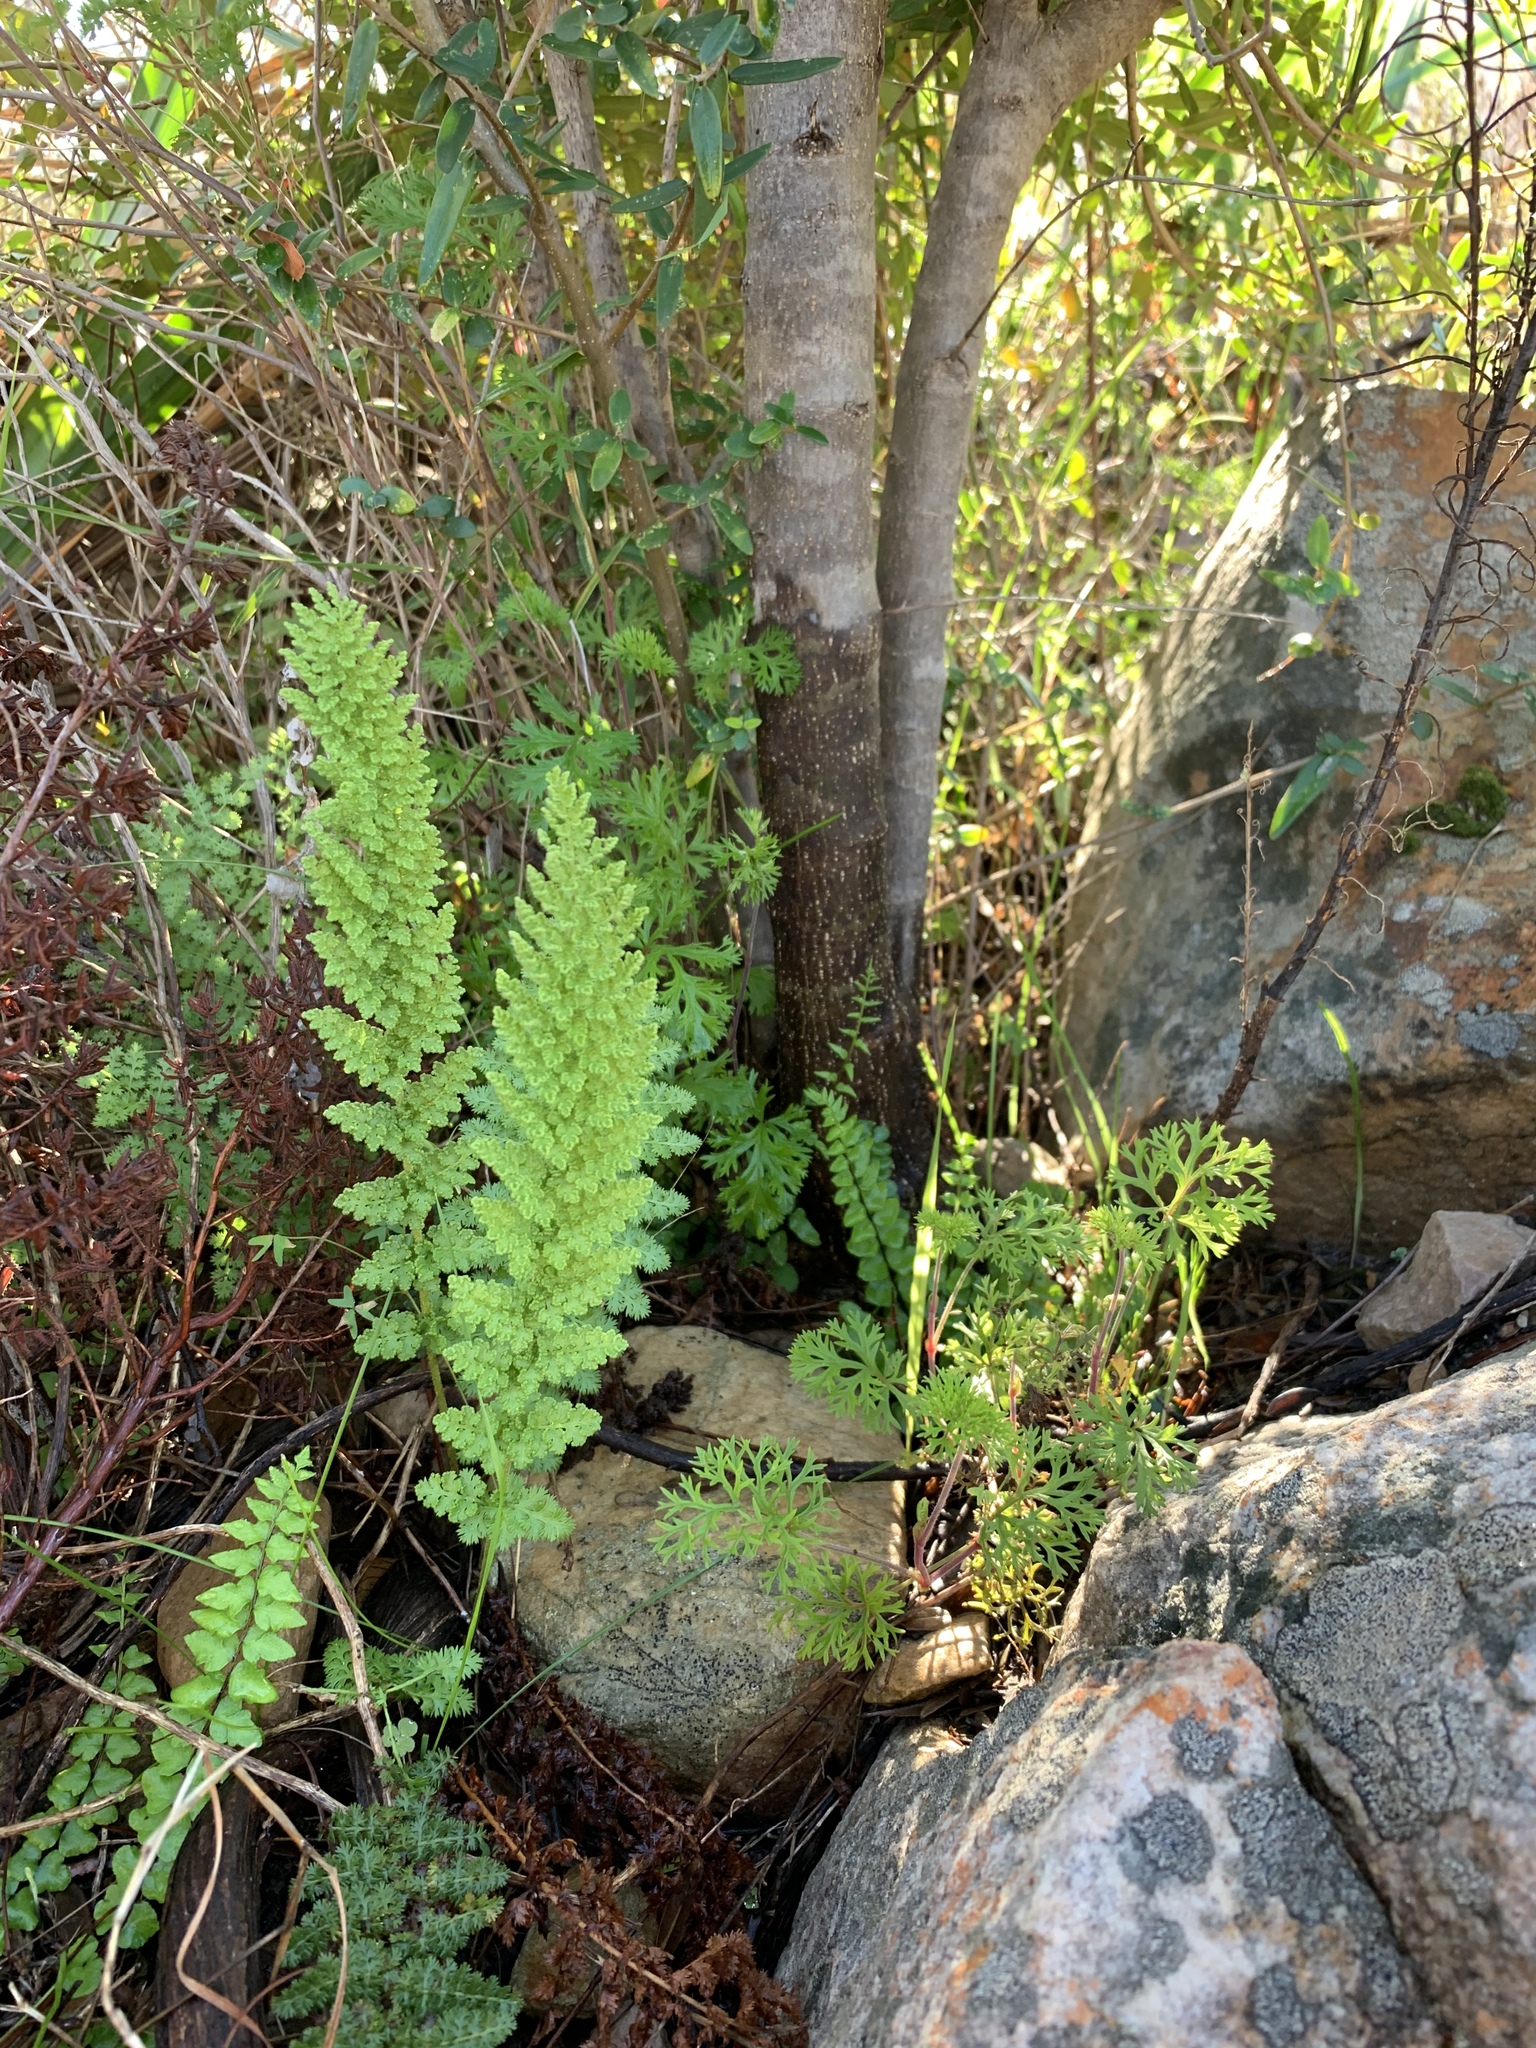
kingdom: Plantae
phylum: Tracheophyta
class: Polypodiopsida
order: Schizaeales
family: Anemiaceae
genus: Anemia
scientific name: Anemia caffrorum
